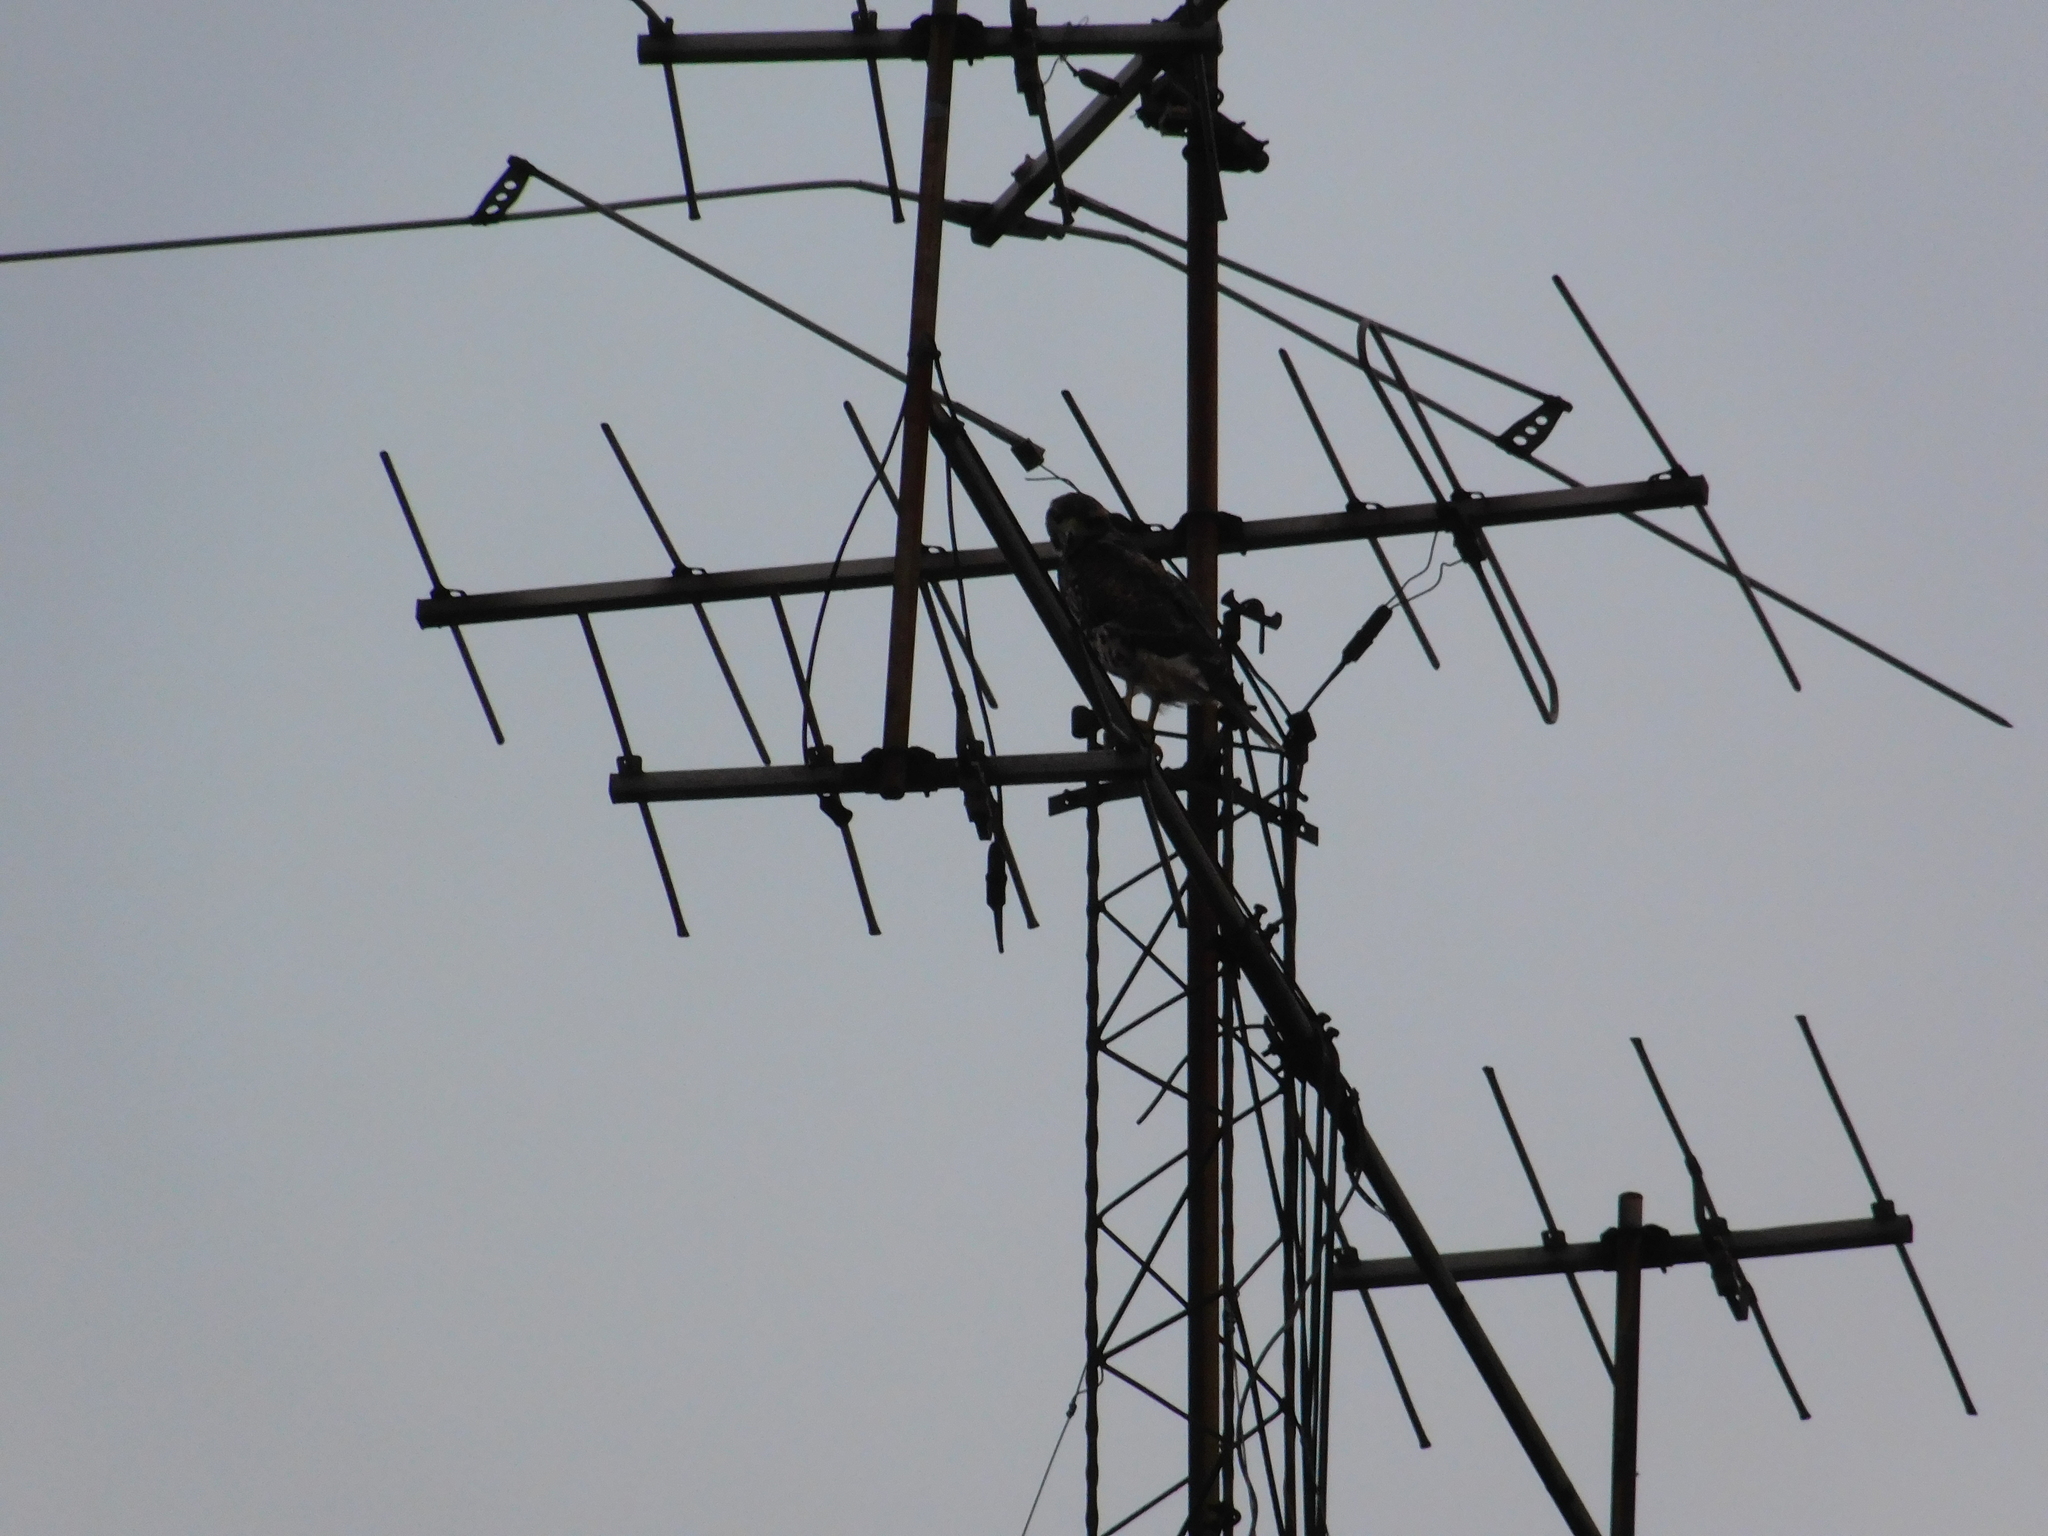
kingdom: Animalia
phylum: Chordata
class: Aves
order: Accipitriformes
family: Accipitridae
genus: Parabuteo
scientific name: Parabuteo unicinctus
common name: Harris's hawk
